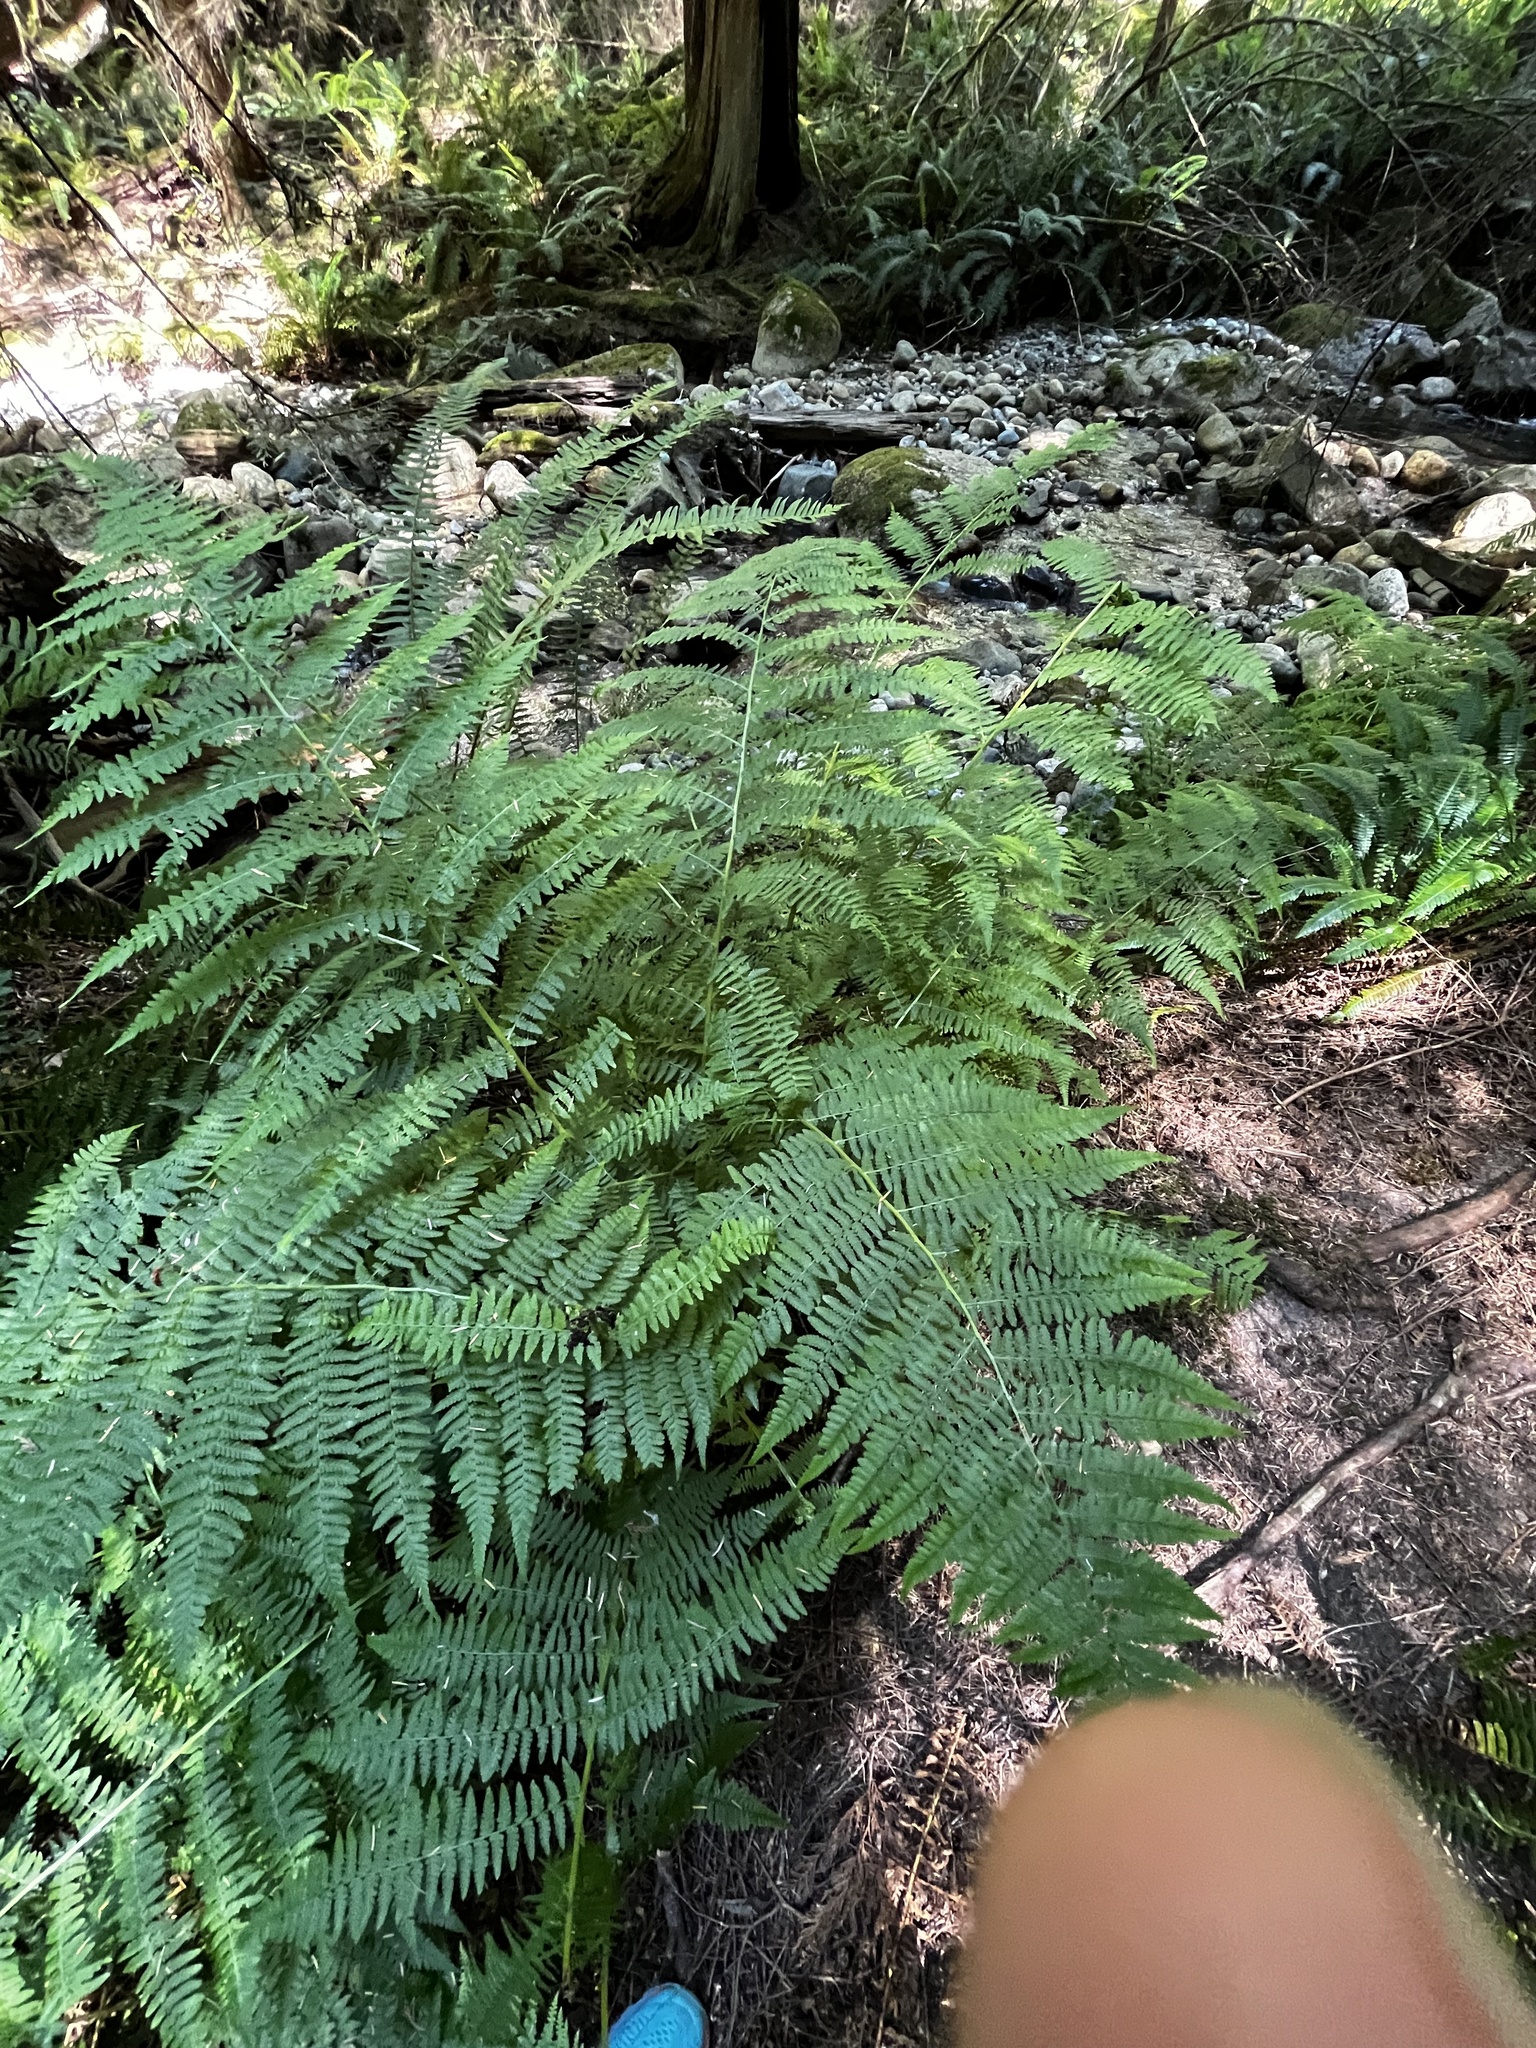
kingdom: Plantae
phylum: Tracheophyta
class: Polypodiopsida
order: Polypodiales
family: Athyriaceae
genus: Athyrium
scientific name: Athyrium filix-femina
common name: Lady fern
